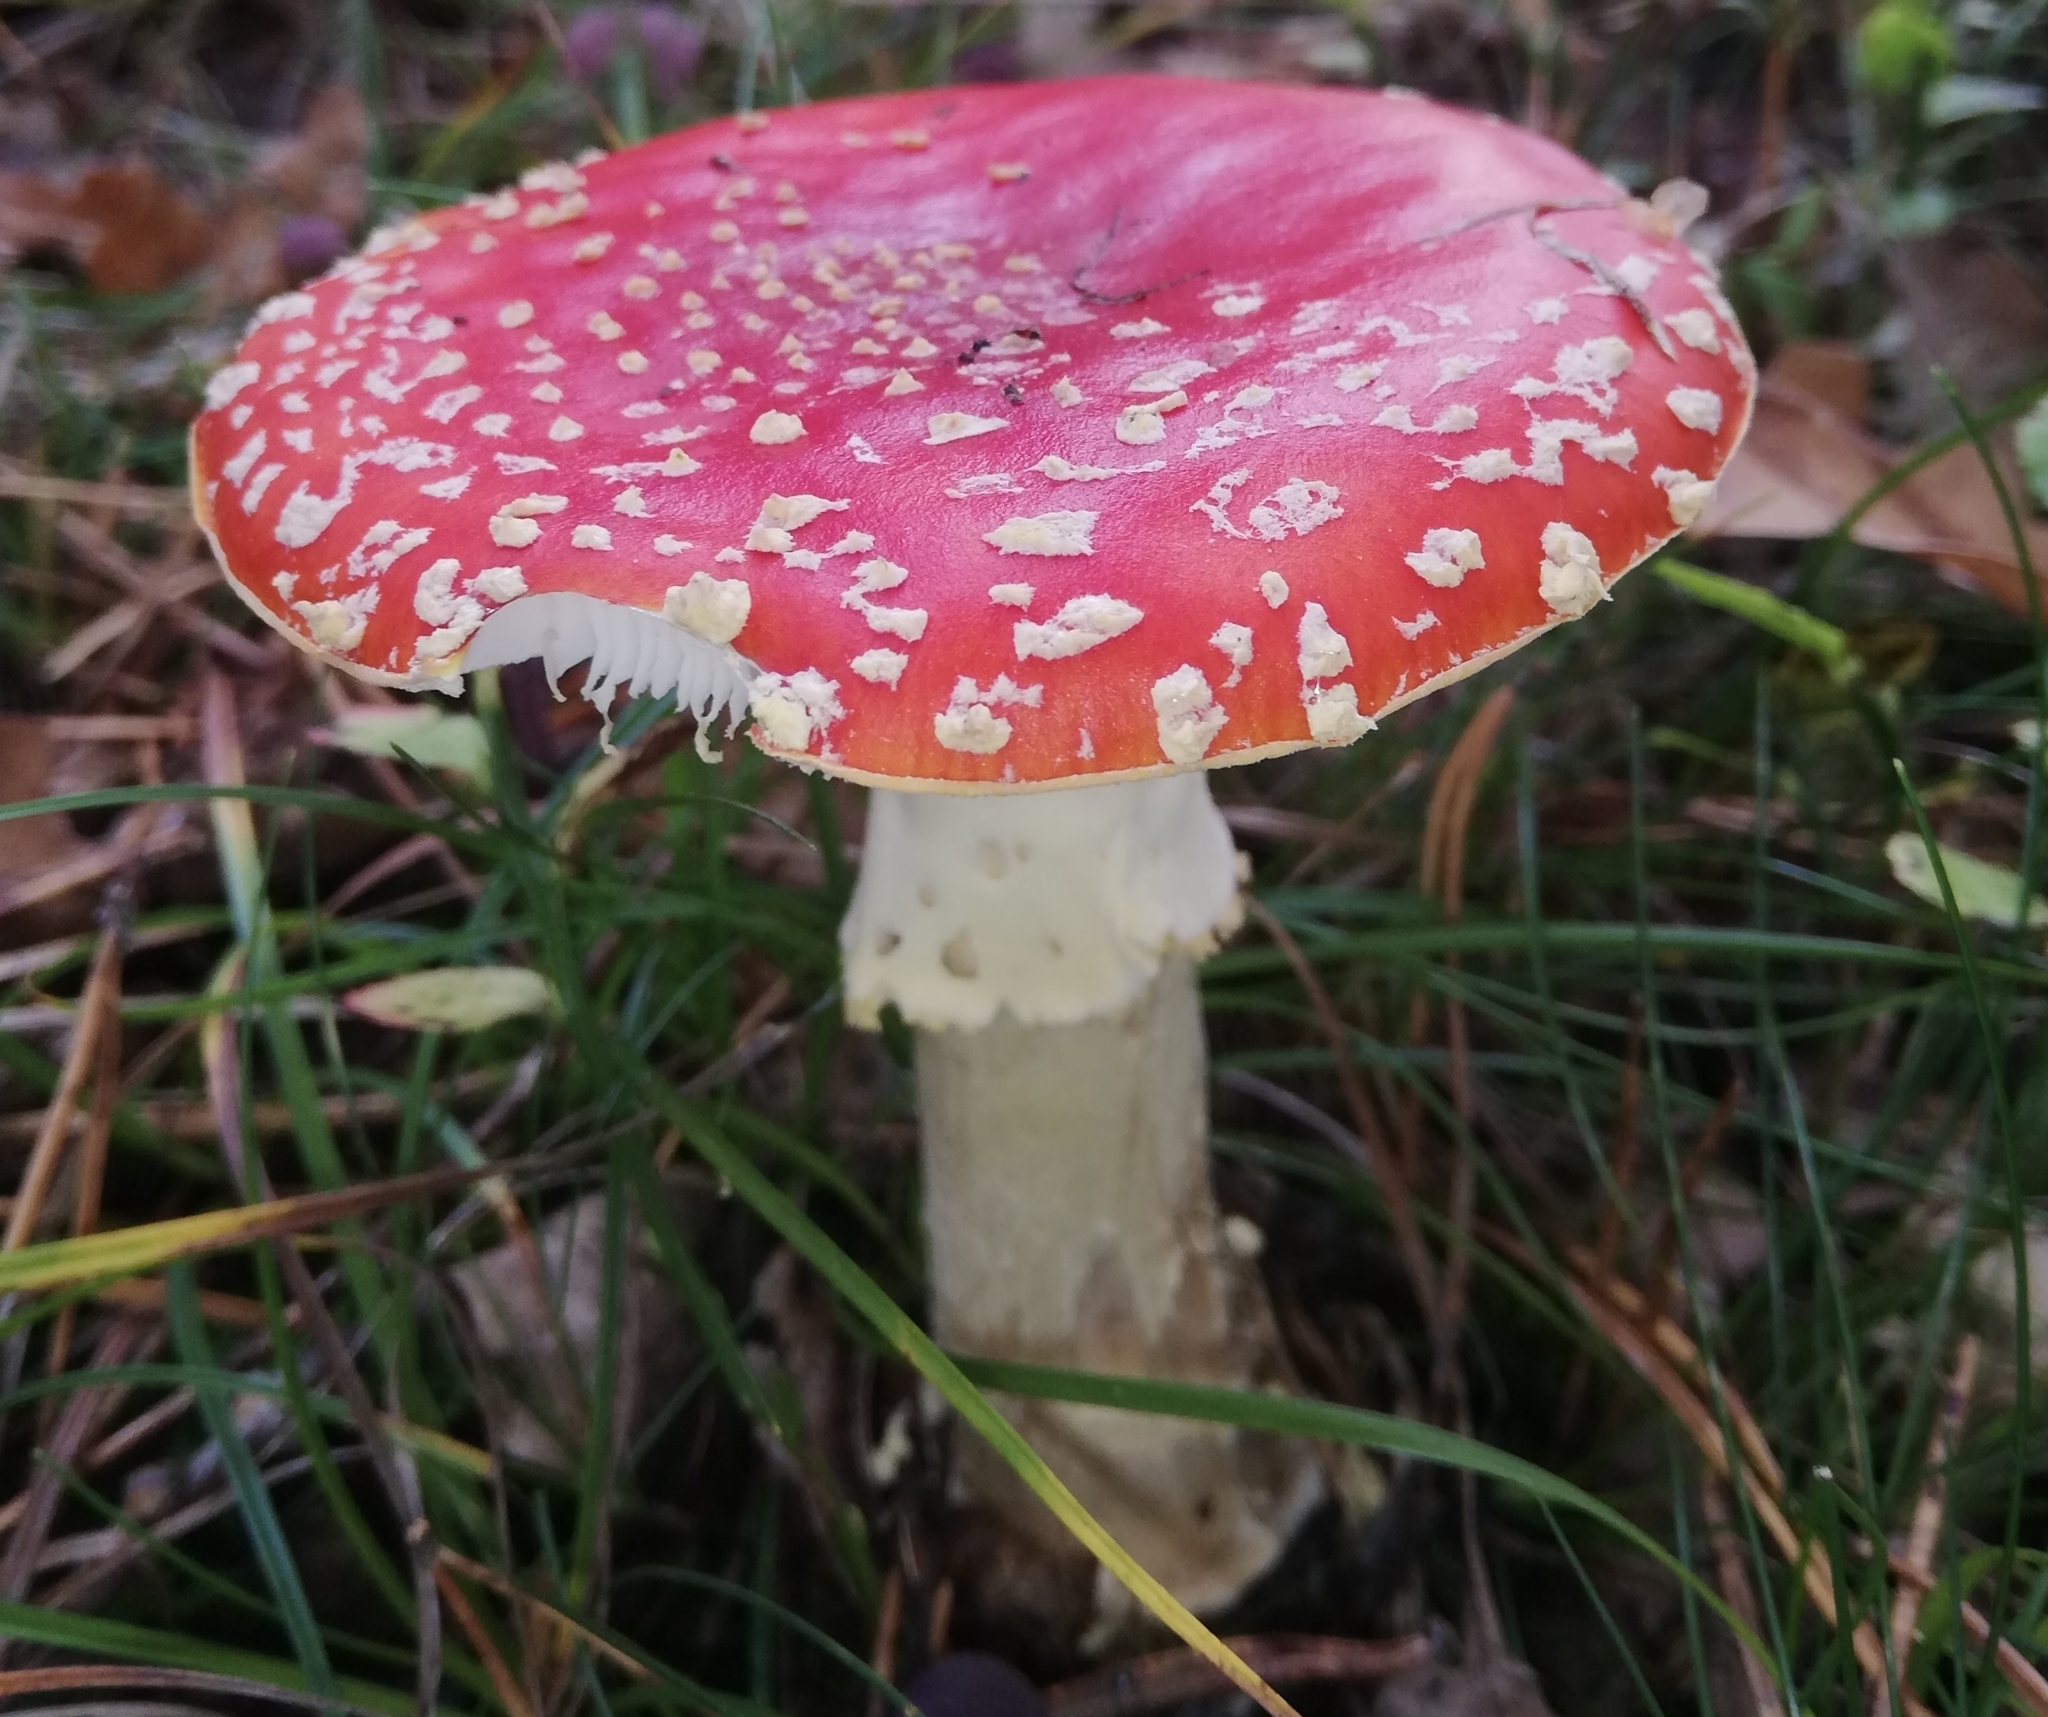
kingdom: Fungi
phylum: Basidiomycota
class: Agaricomycetes
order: Agaricales
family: Amanitaceae
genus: Amanita
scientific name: Amanita muscaria
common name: Fly agaric
